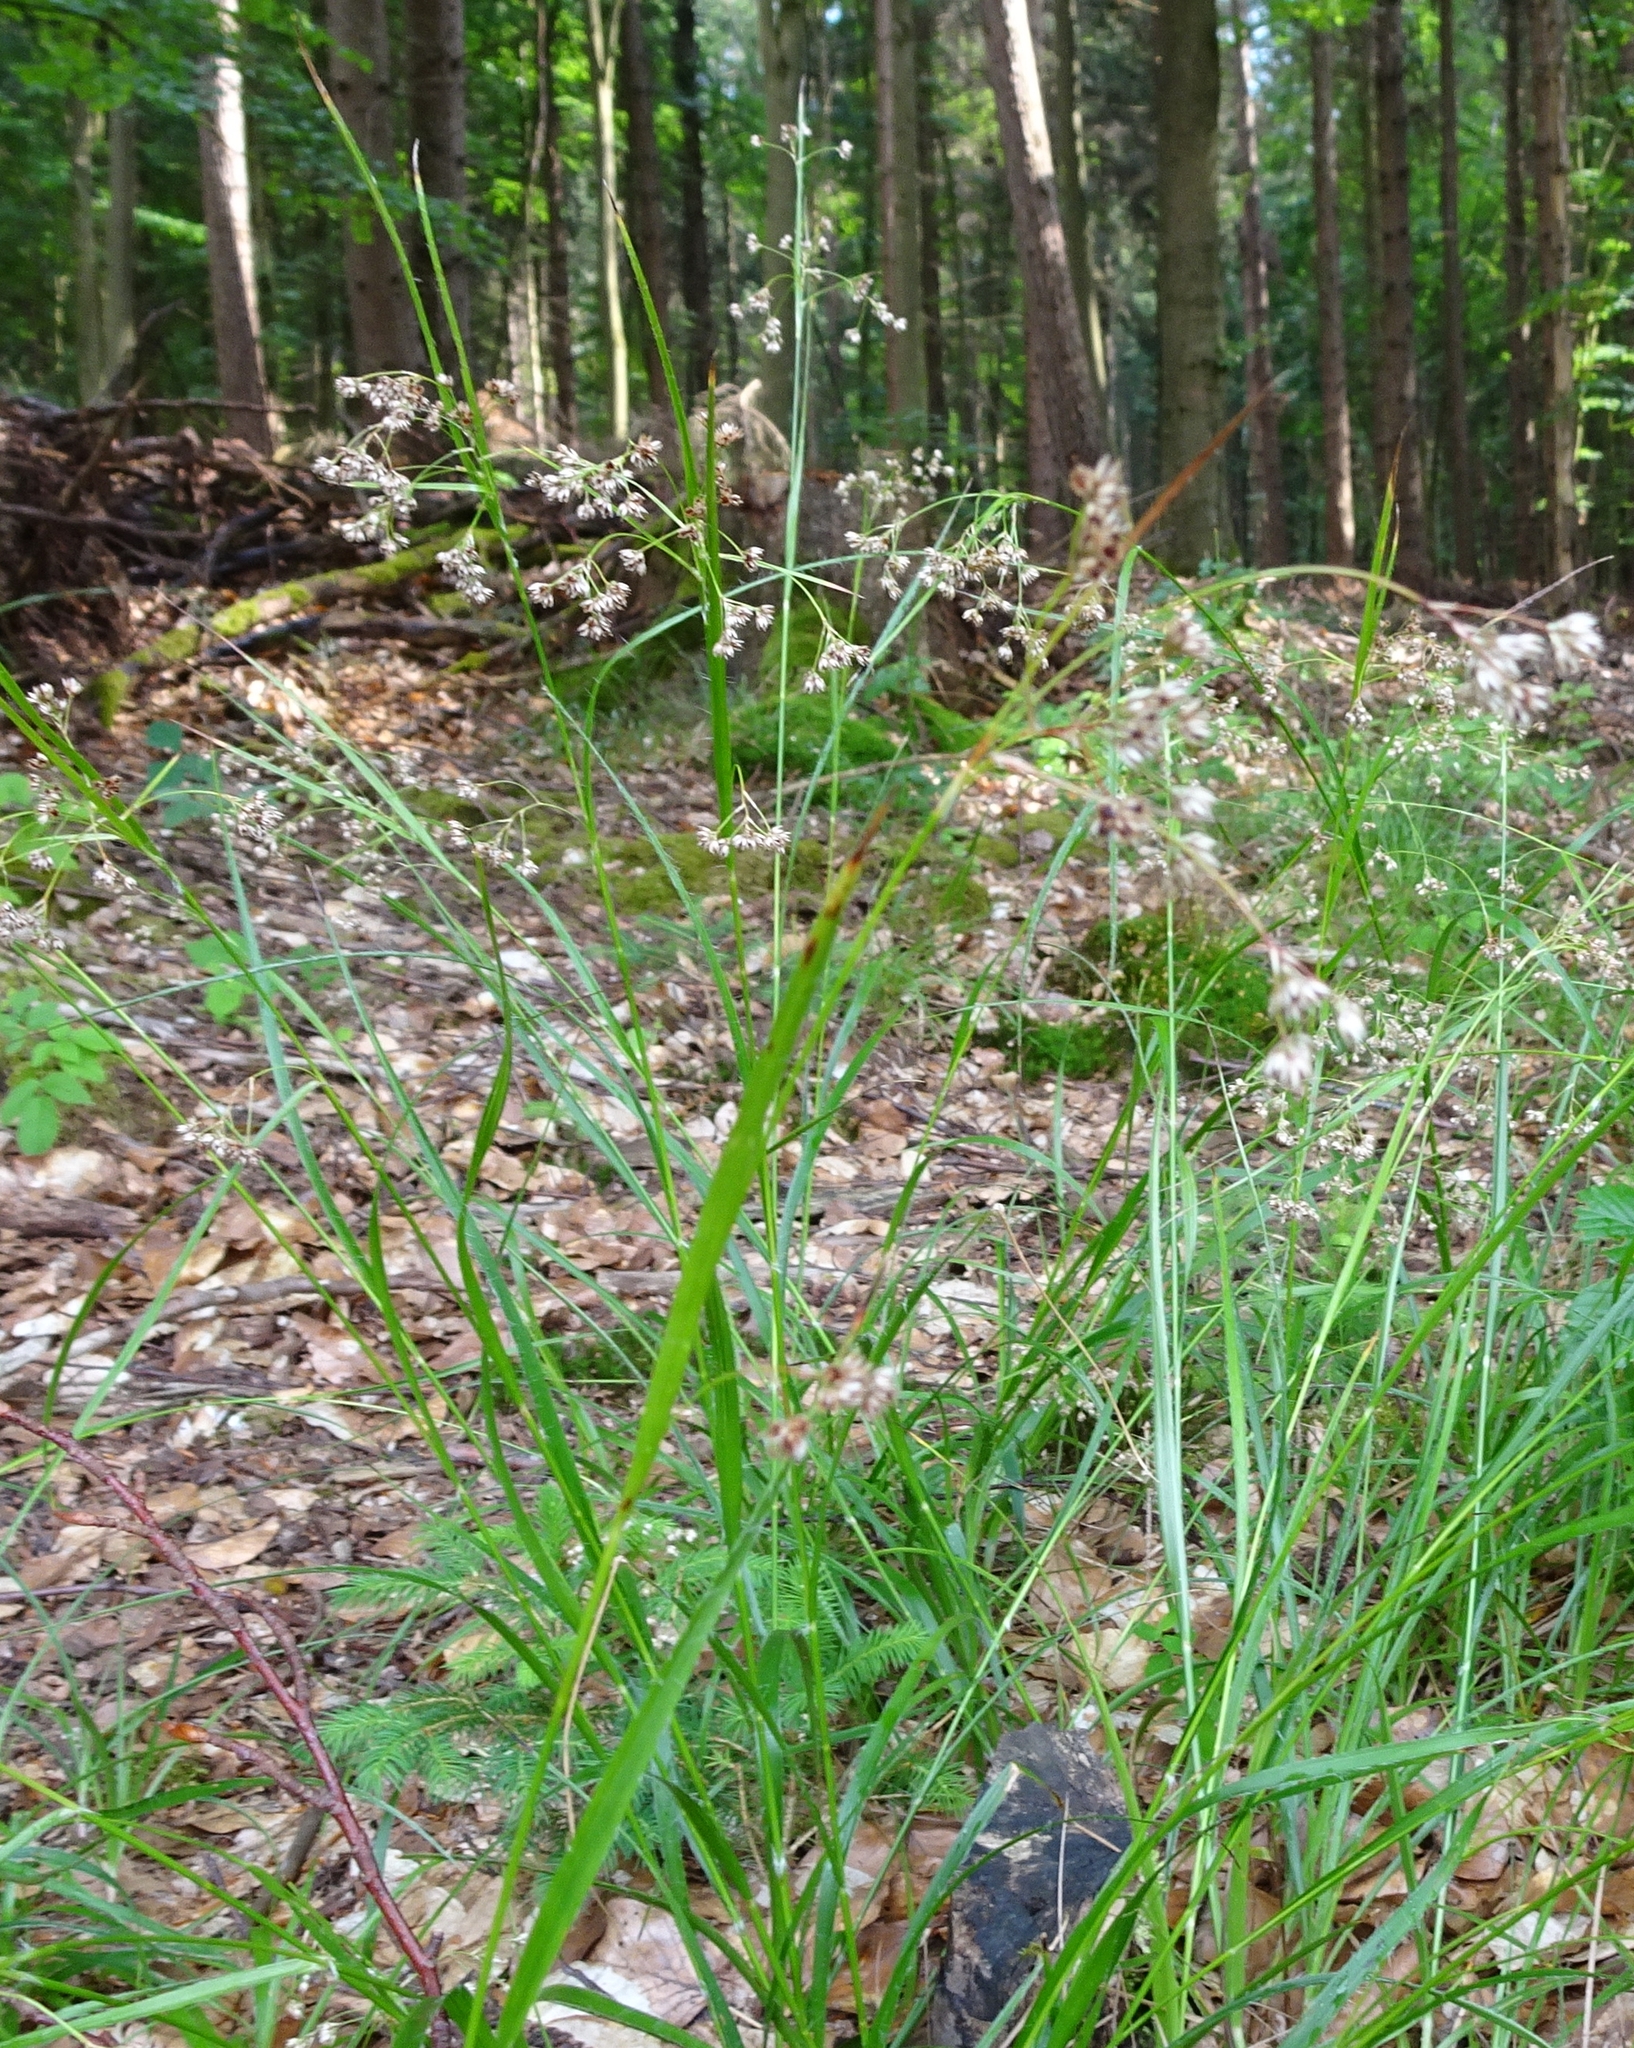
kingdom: Plantae
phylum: Tracheophyta
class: Liliopsida
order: Poales
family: Juncaceae
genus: Luzula
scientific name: Luzula luzuloides
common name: White wood-rush
